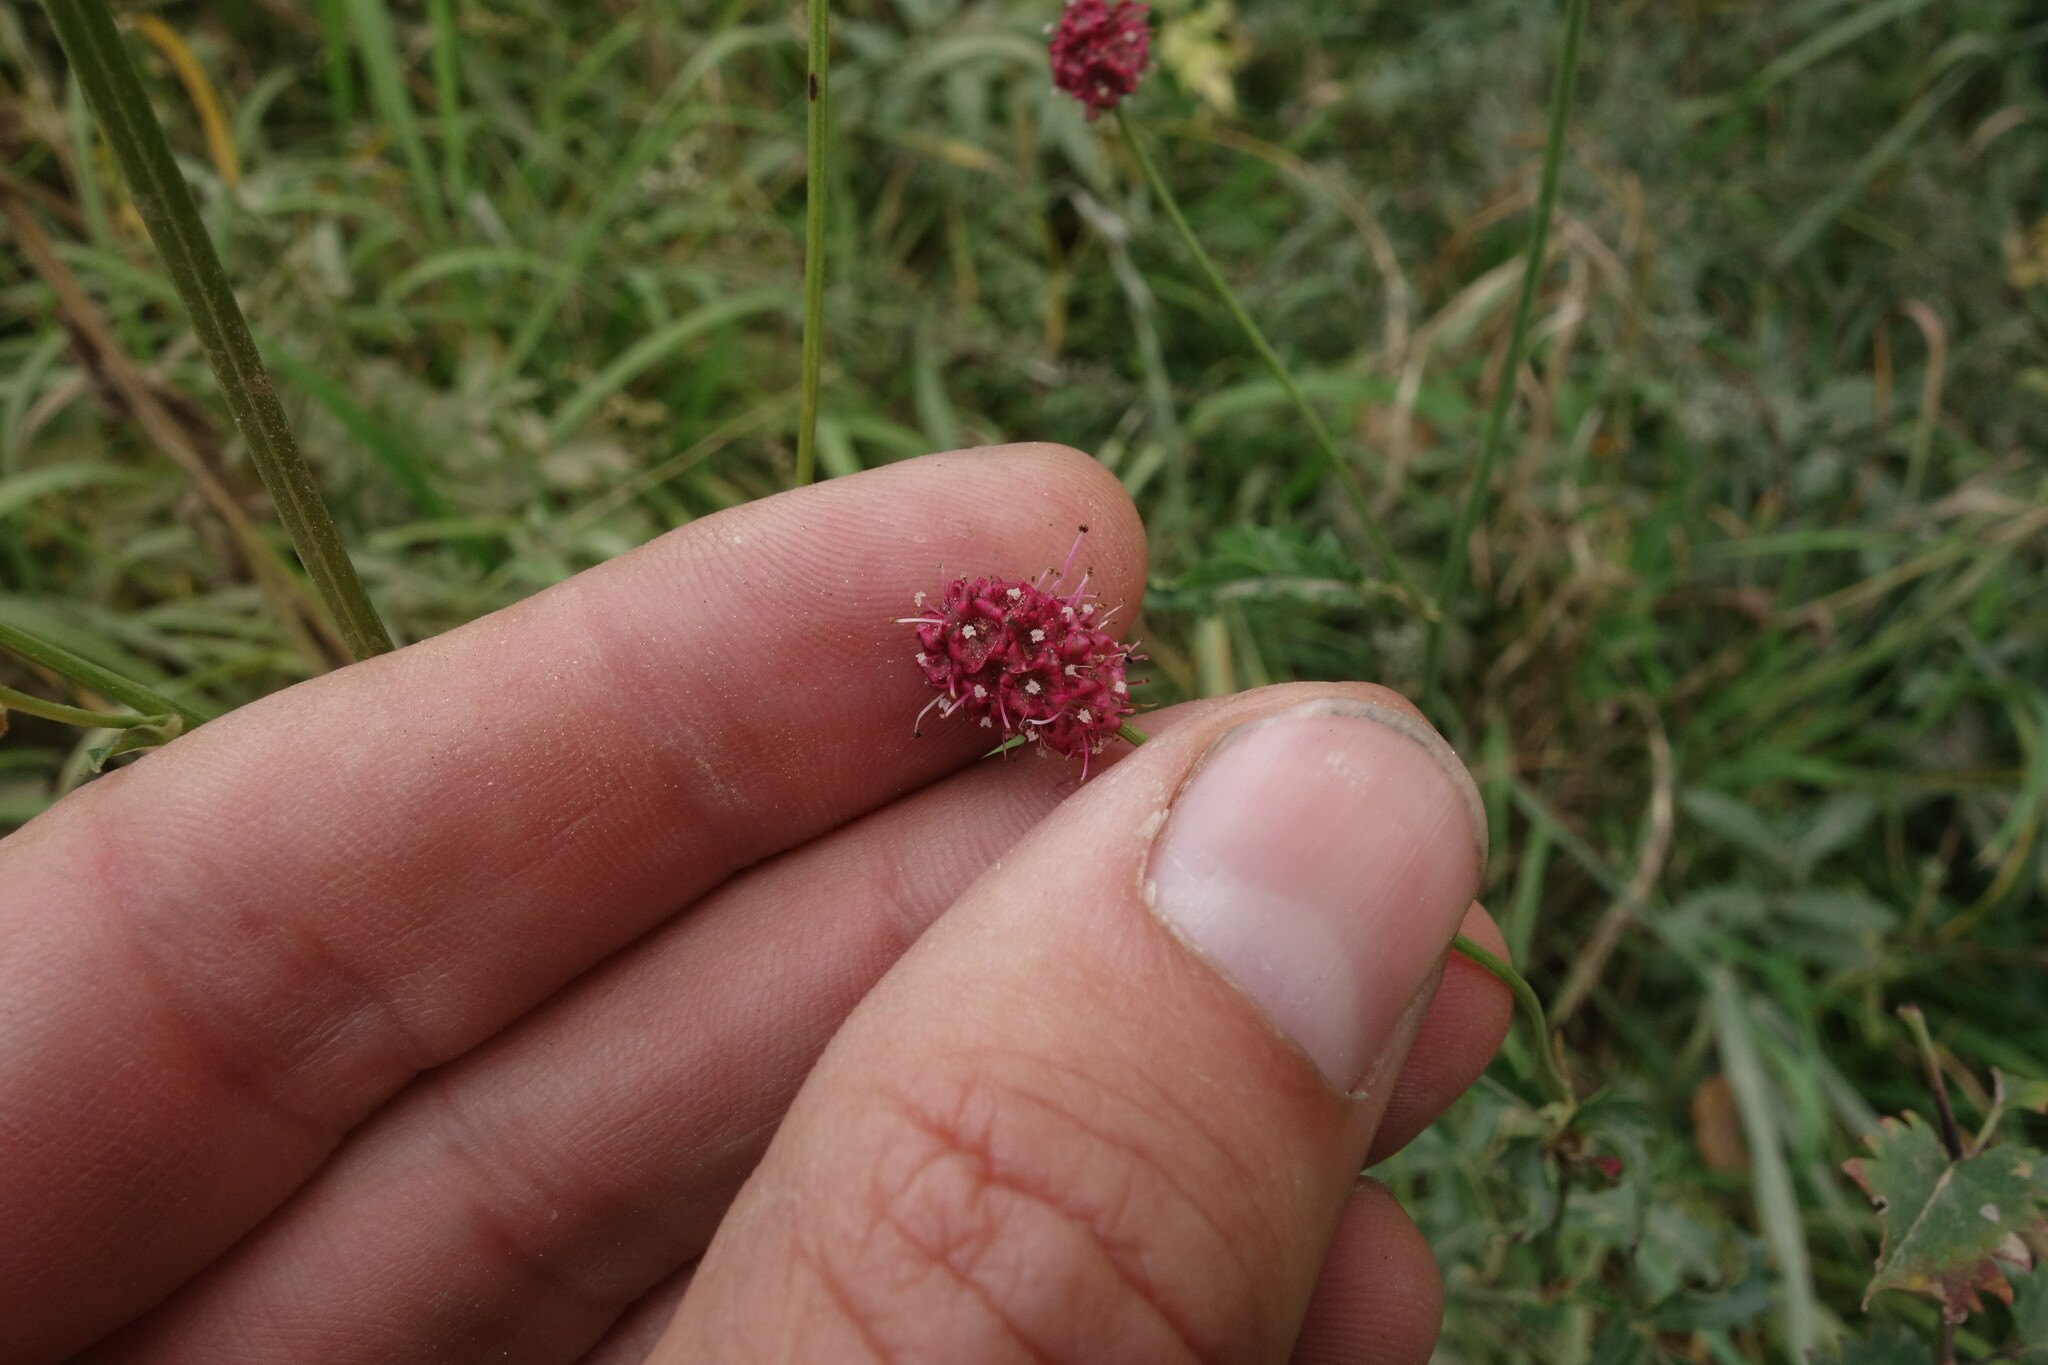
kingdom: Plantae
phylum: Tracheophyta
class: Magnoliopsida
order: Rosales
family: Rosaceae
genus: Poterium
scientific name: Poterium tenuifolium
